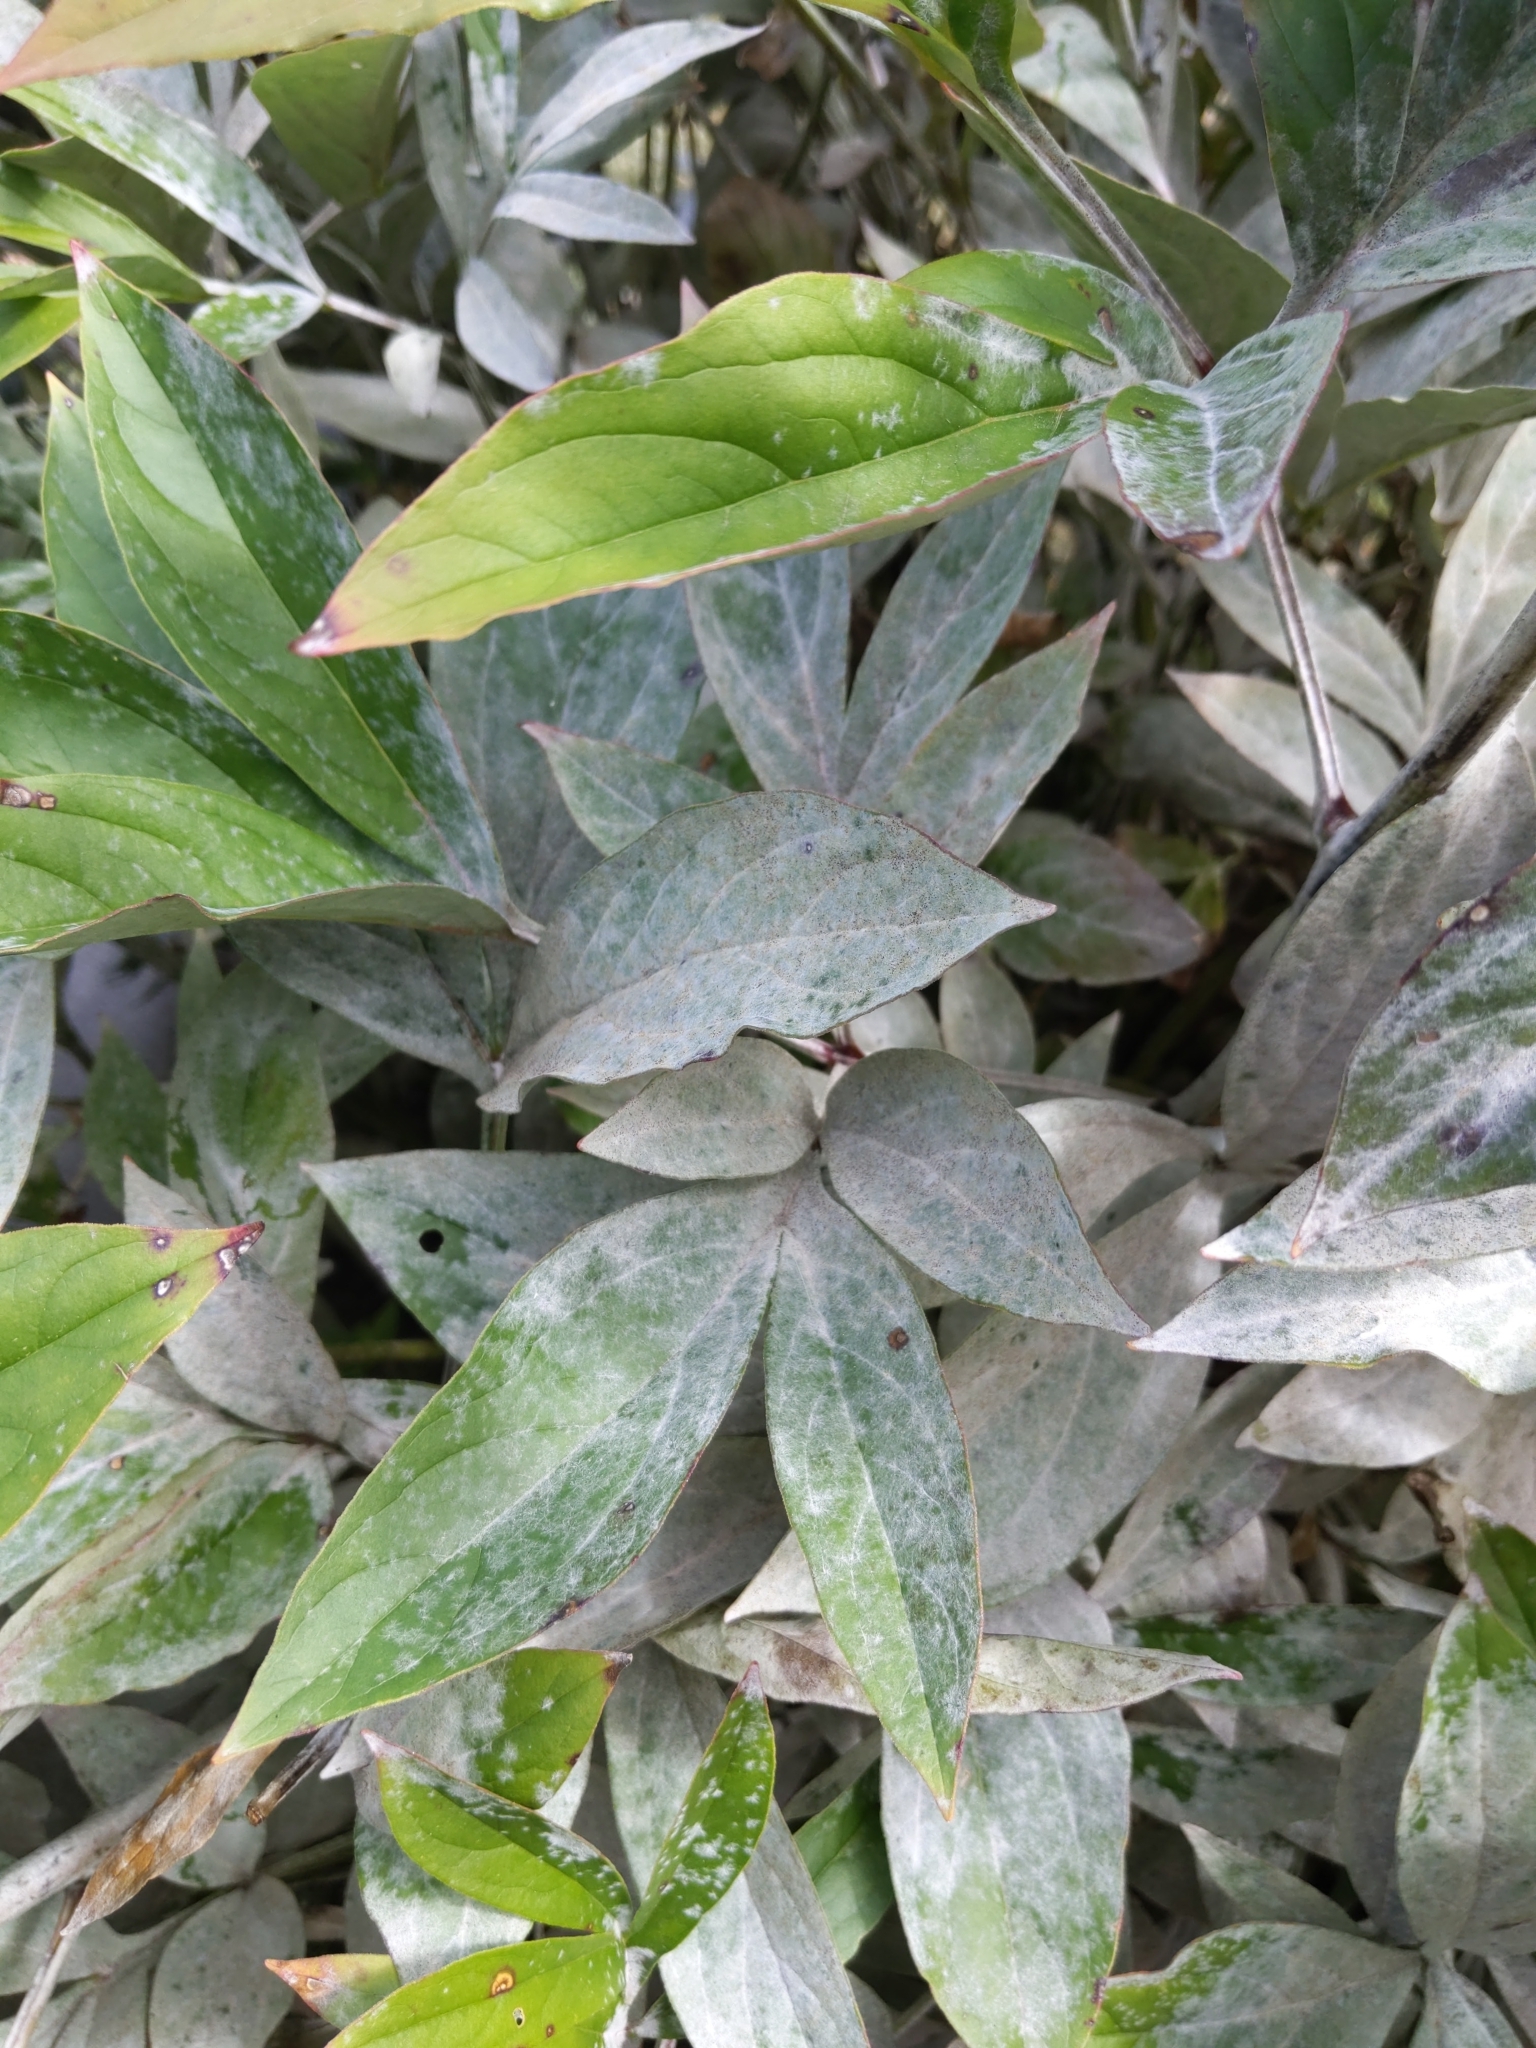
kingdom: Fungi
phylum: Ascomycota
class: Leotiomycetes
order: Helotiales
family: Erysiphaceae
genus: Erysiphe
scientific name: Erysiphe paeoniae
